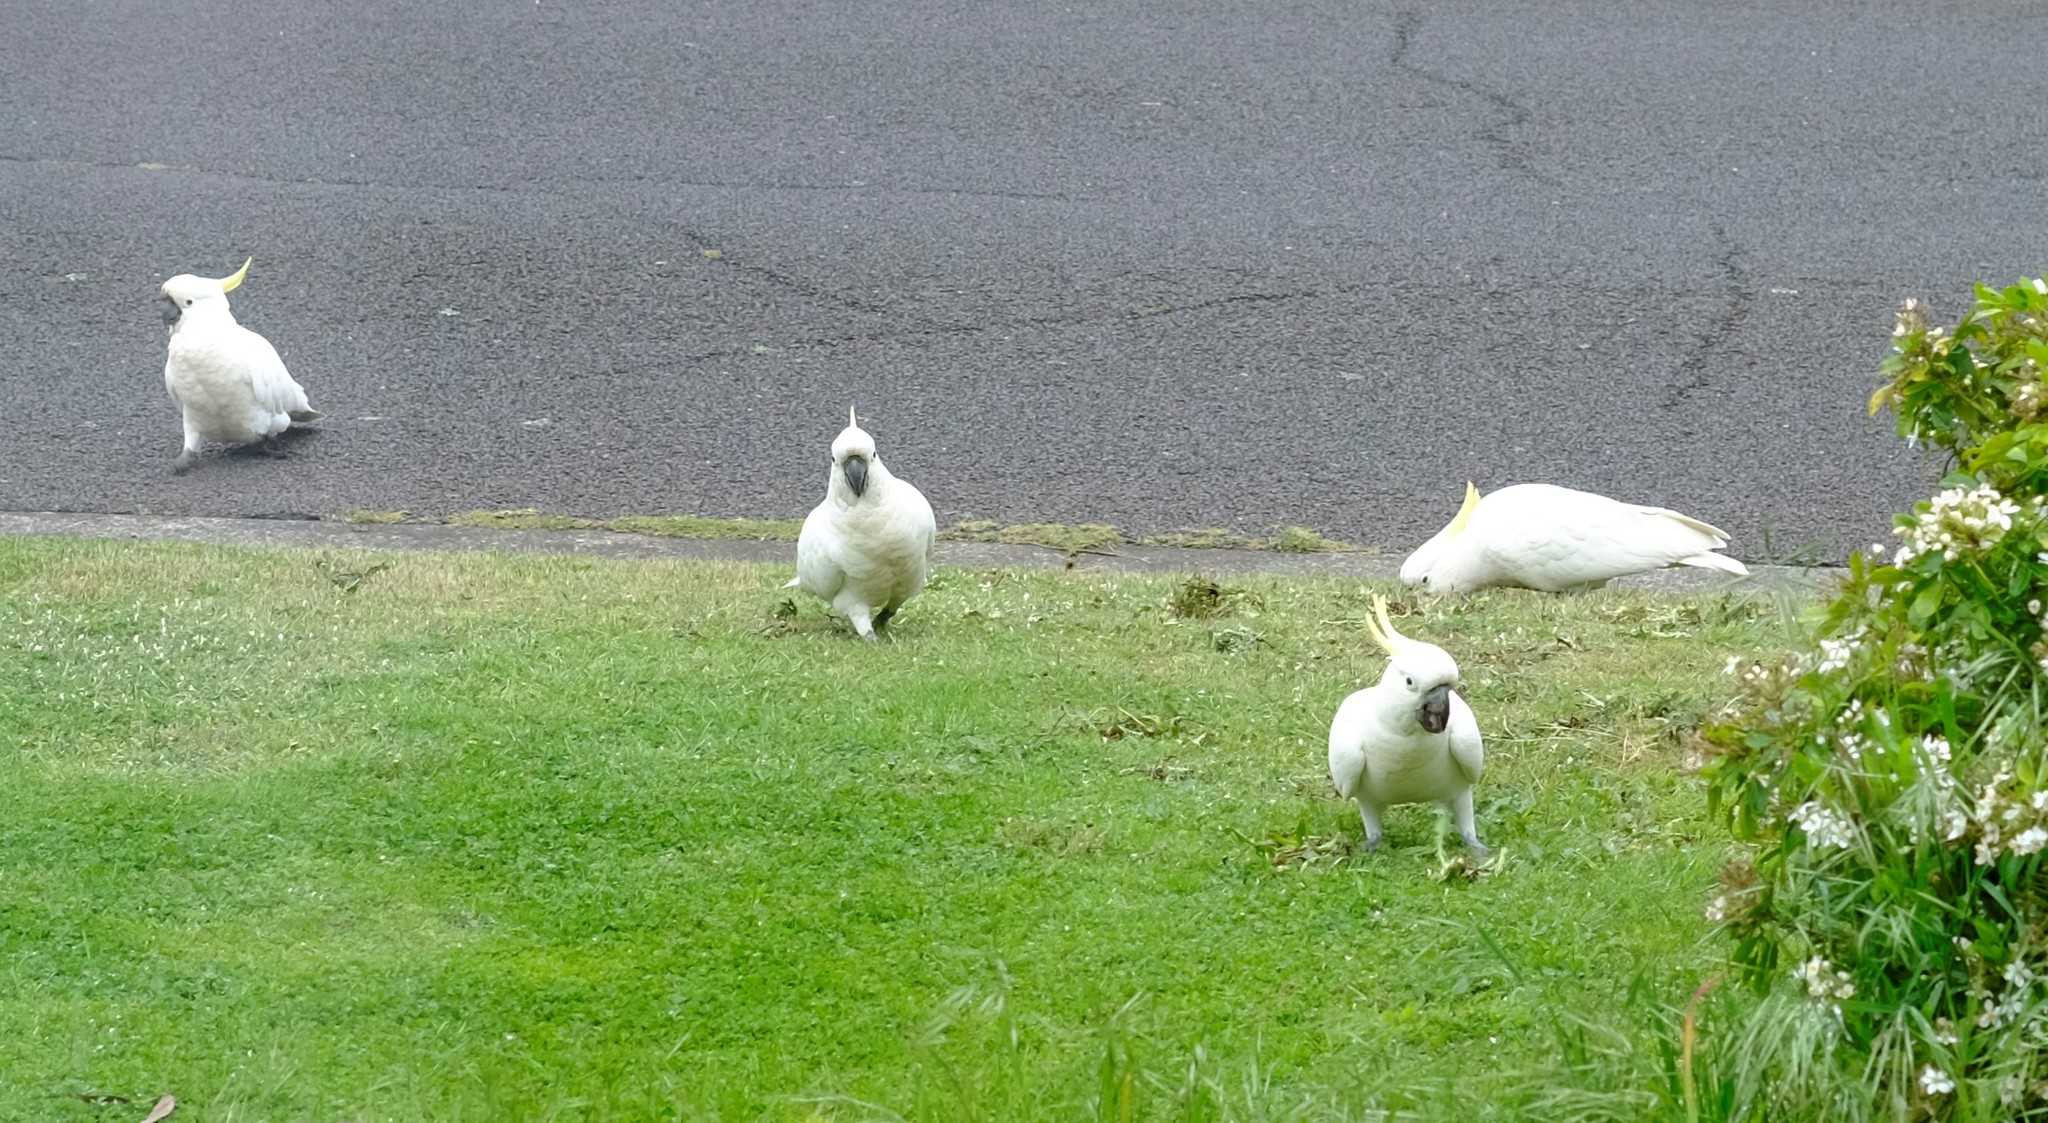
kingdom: Animalia
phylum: Chordata
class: Aves
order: Psittaciformes
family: Psittacidae
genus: Cacatua
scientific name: Cacatua galerita
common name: Sulphur-crested cockatoo
